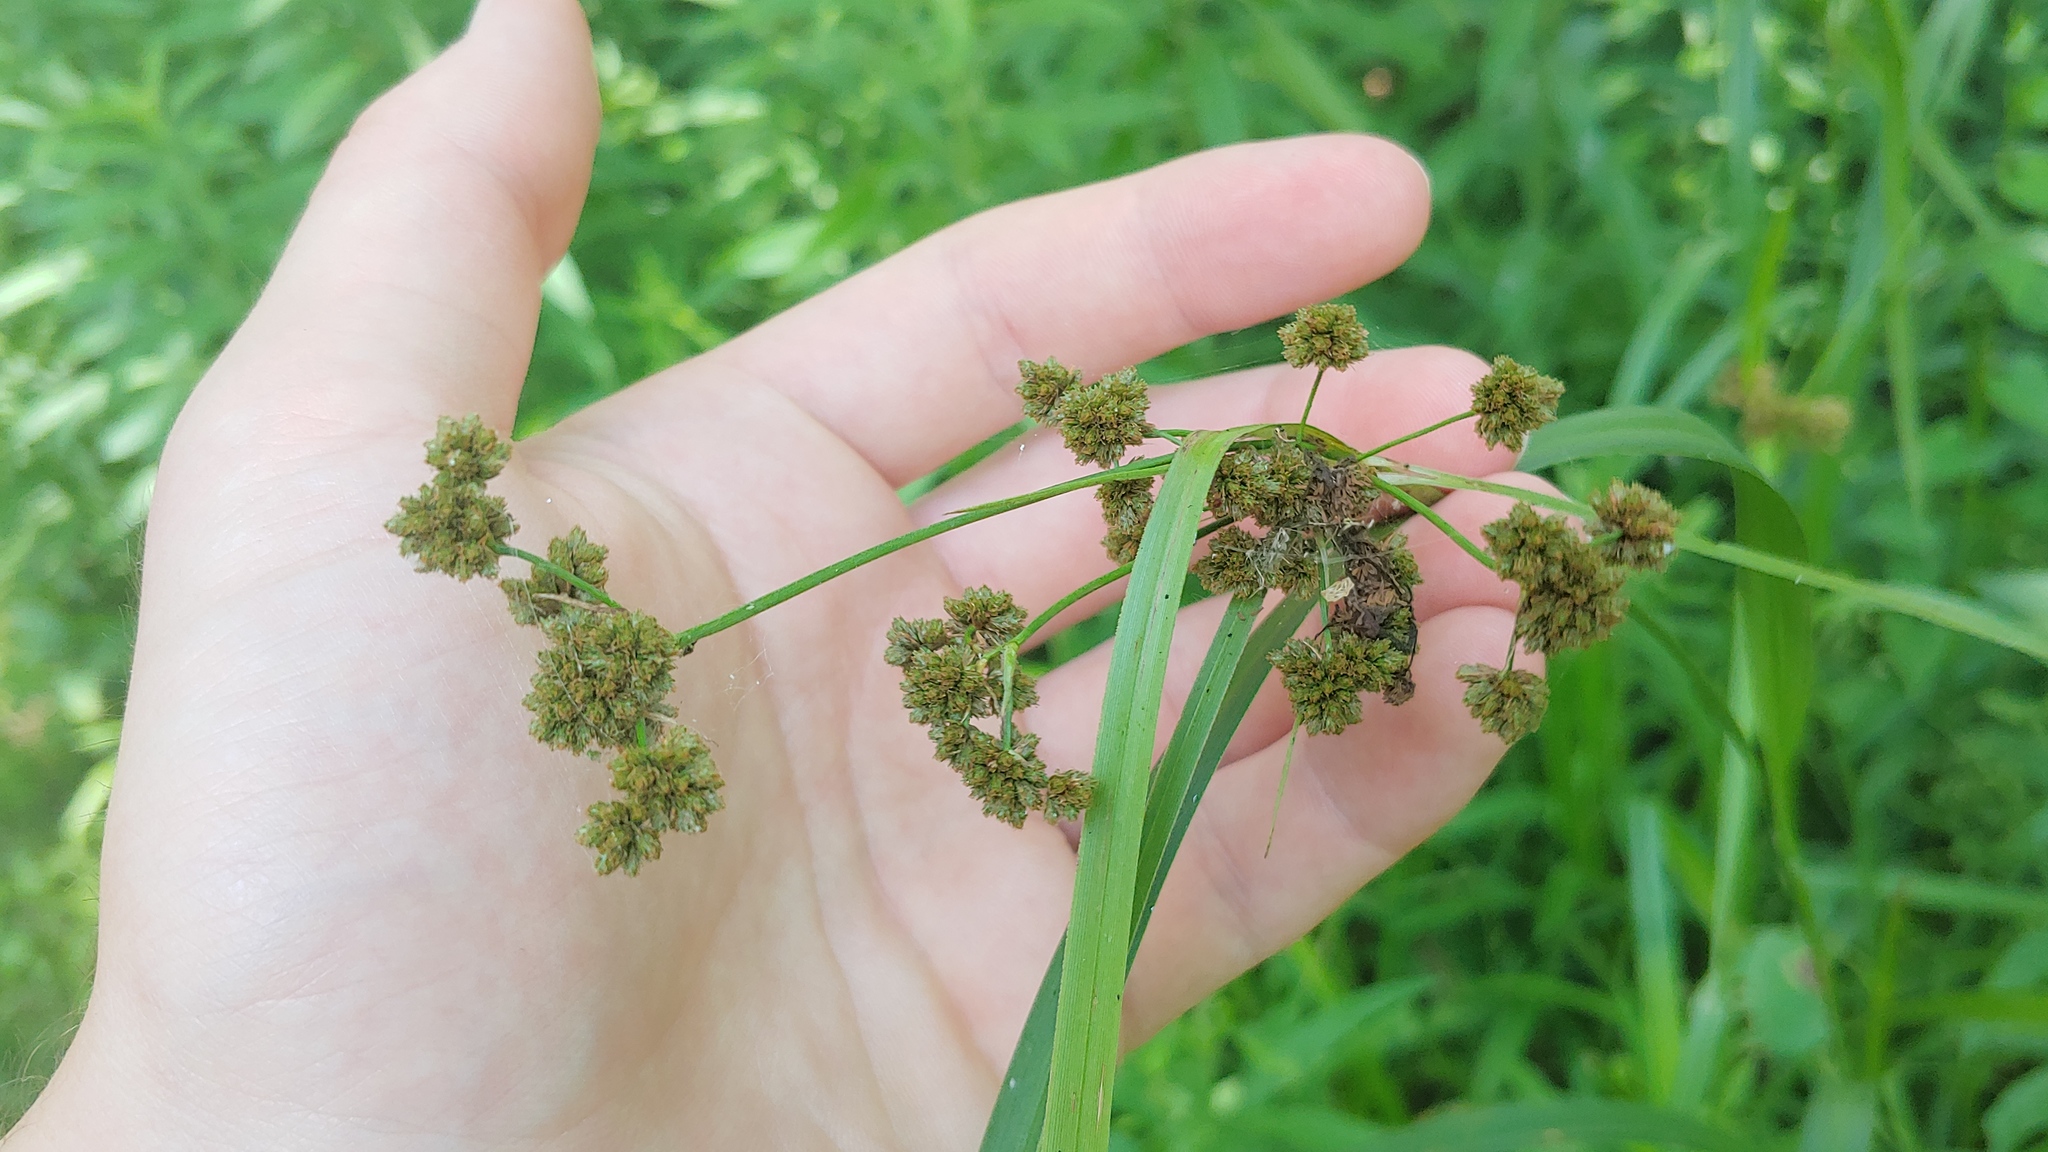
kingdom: Plantae
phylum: Tracheophyta
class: Liliopsida
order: Poales
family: Cyperaceae
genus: Scirpus
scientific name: Scirpus atrovirens
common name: Black bulrush
